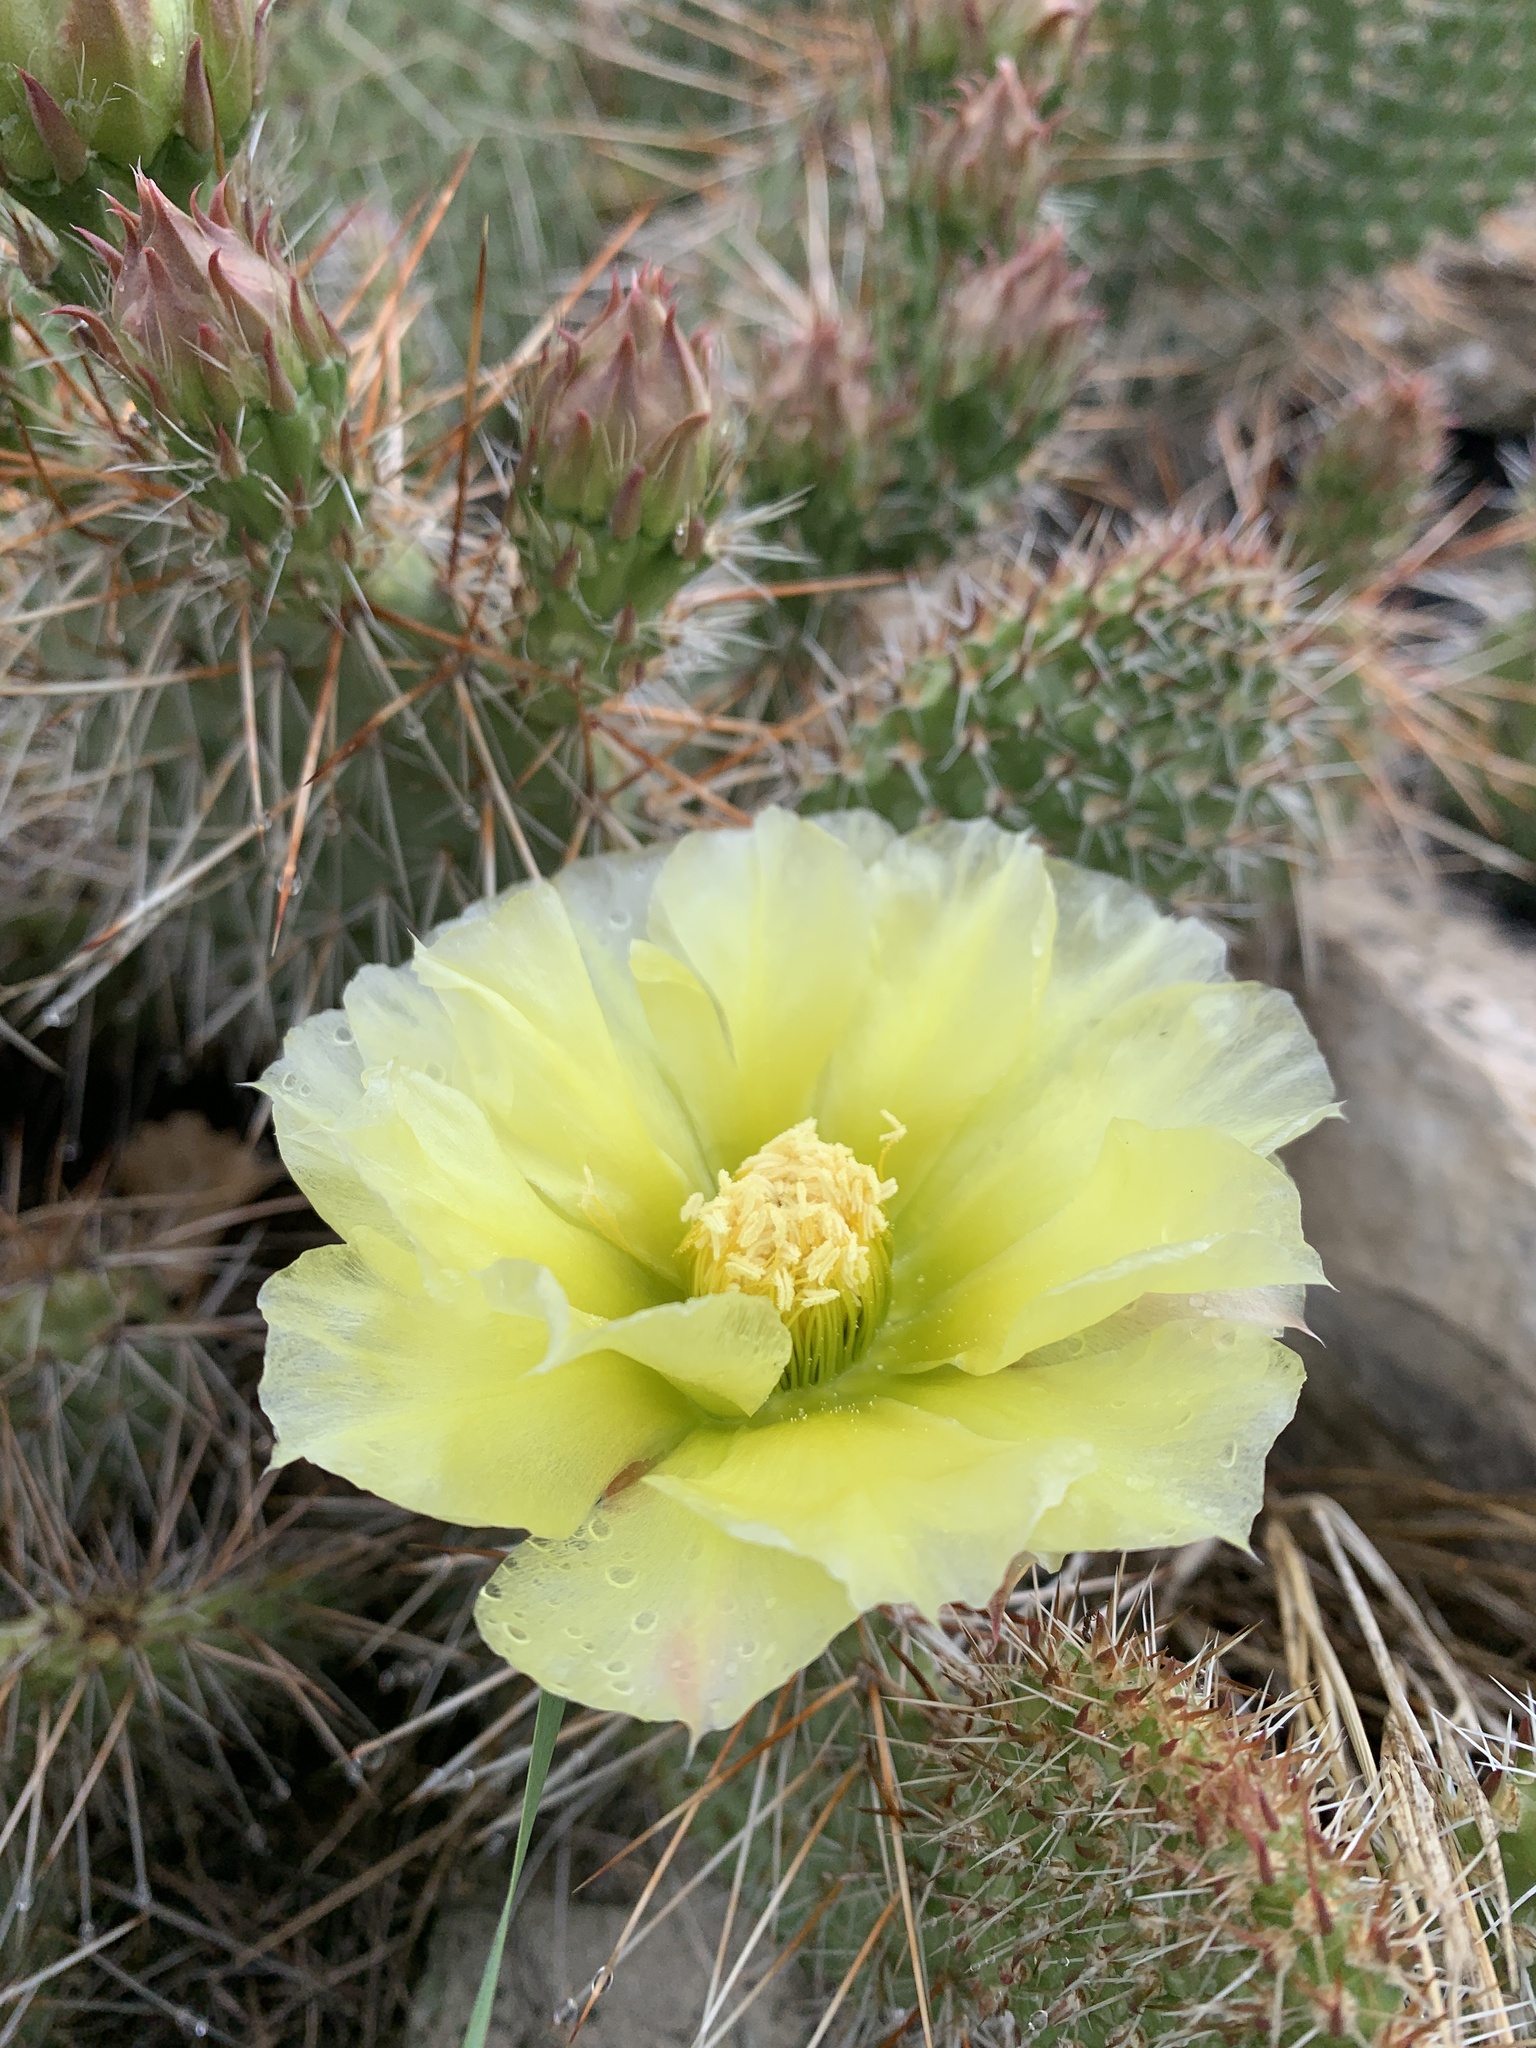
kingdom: Plantae
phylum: Tracheophyta
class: Magnoliopsida
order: Caryophyllales
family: Cactaceae
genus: Opuntia
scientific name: Opuntia polyacantha
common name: Plains prickly-pear
